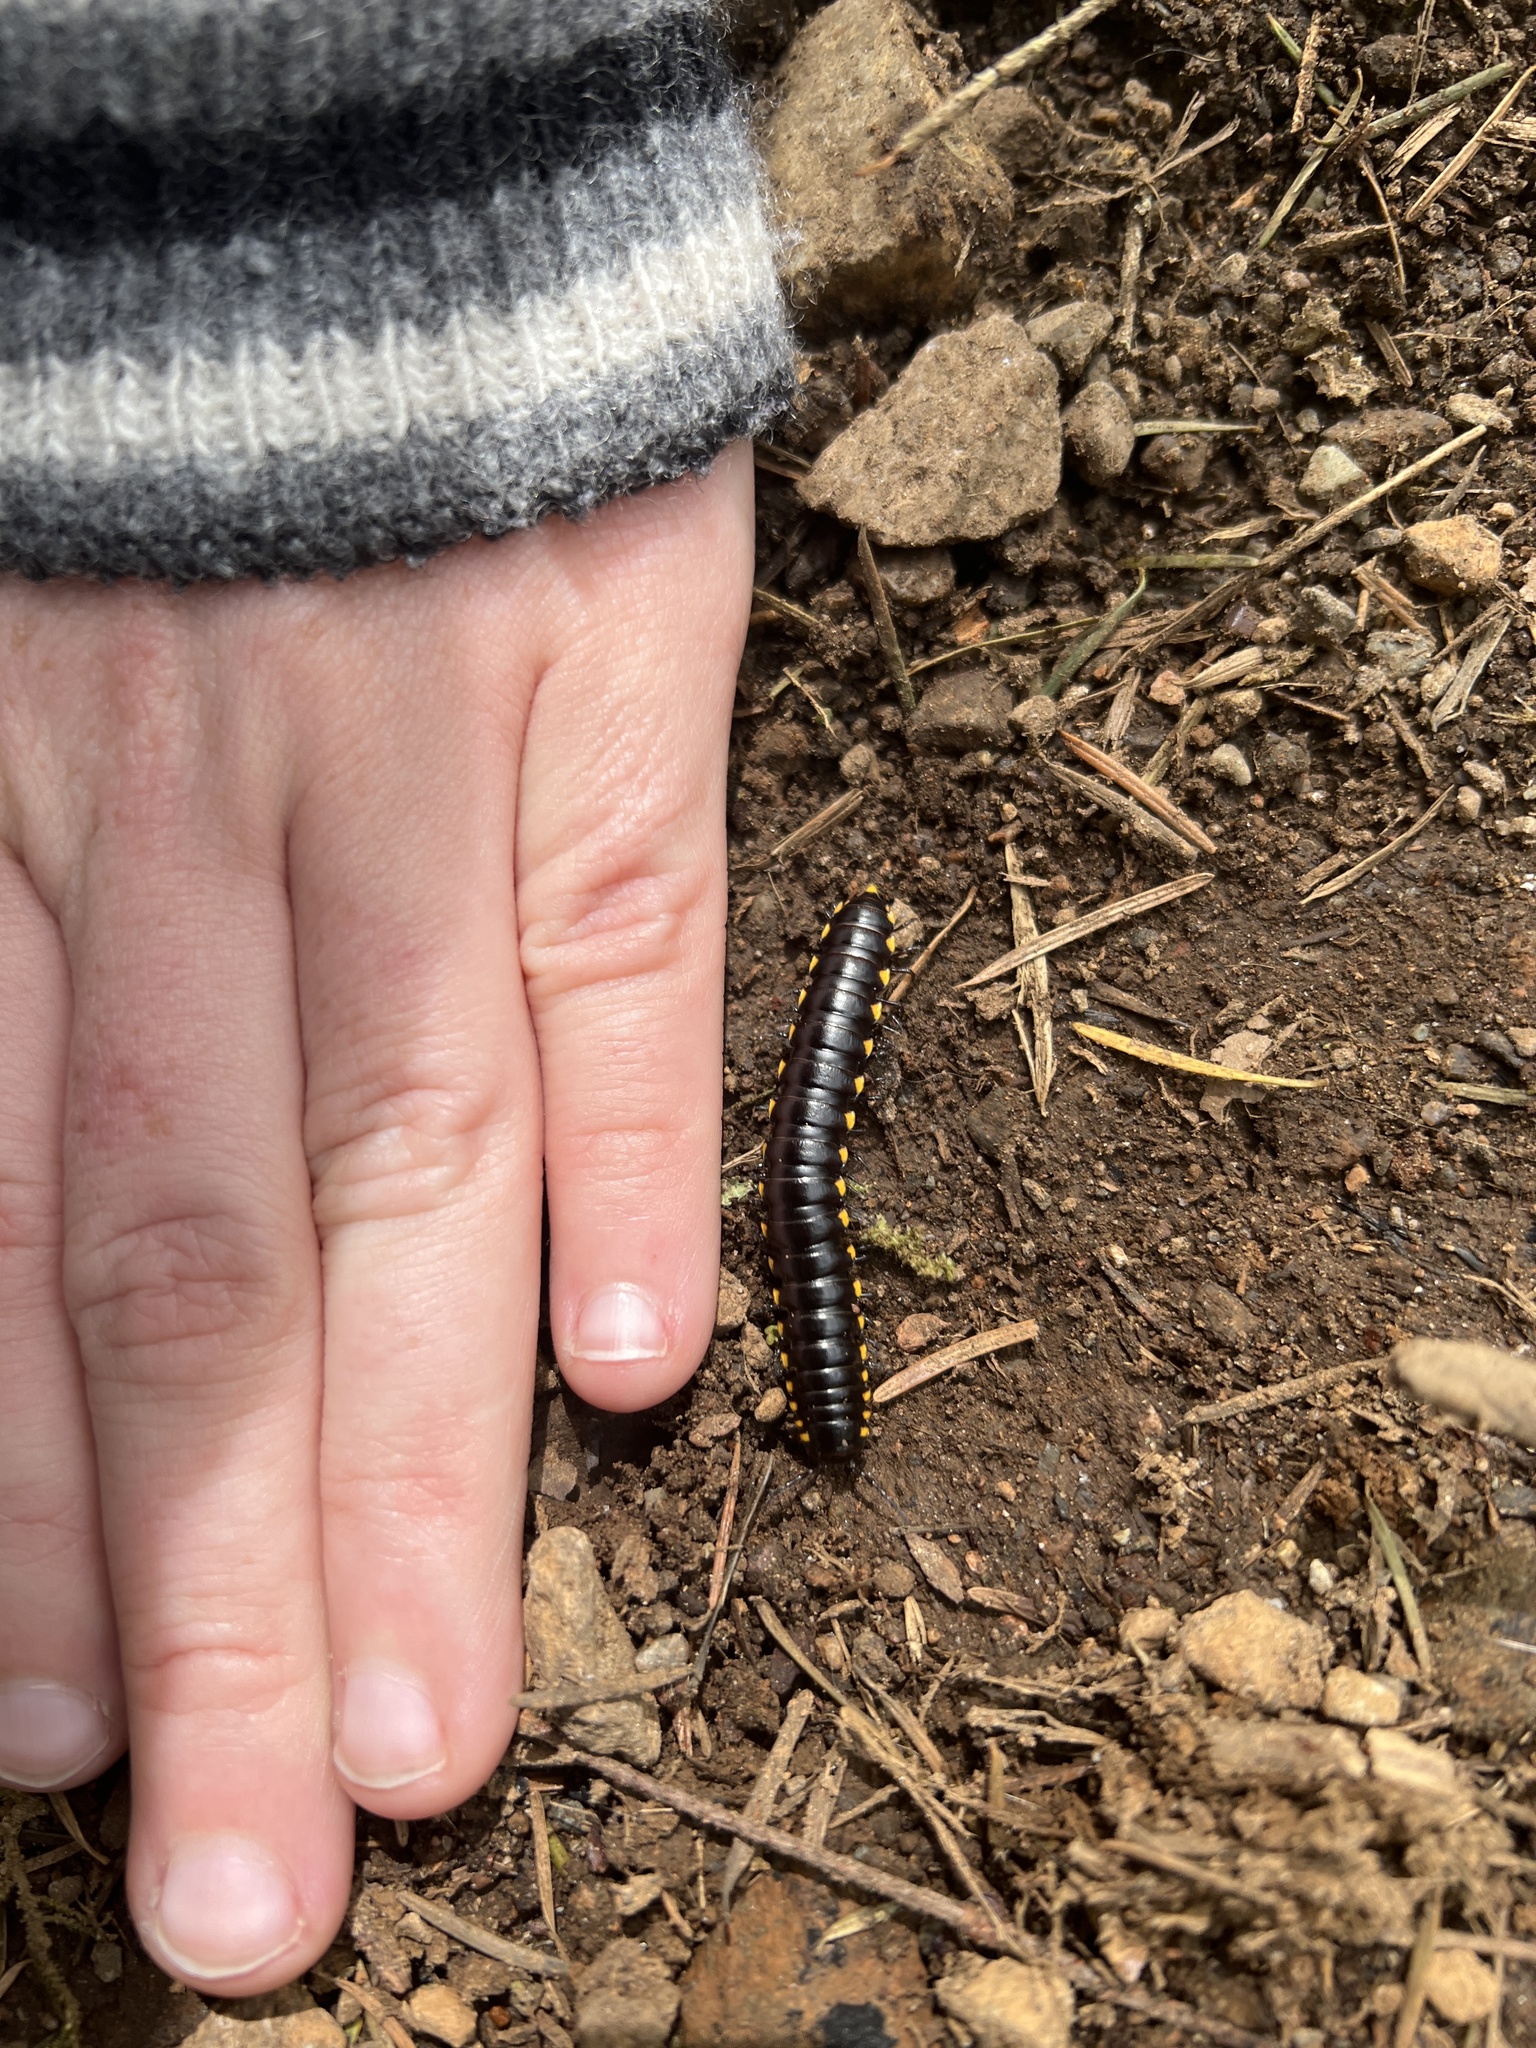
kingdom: Animalia
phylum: Arthropoda
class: Diplopoda
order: Polydesmida
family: Xystodesmidae
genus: Harpaphe
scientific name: Harpaphe haydeniana
